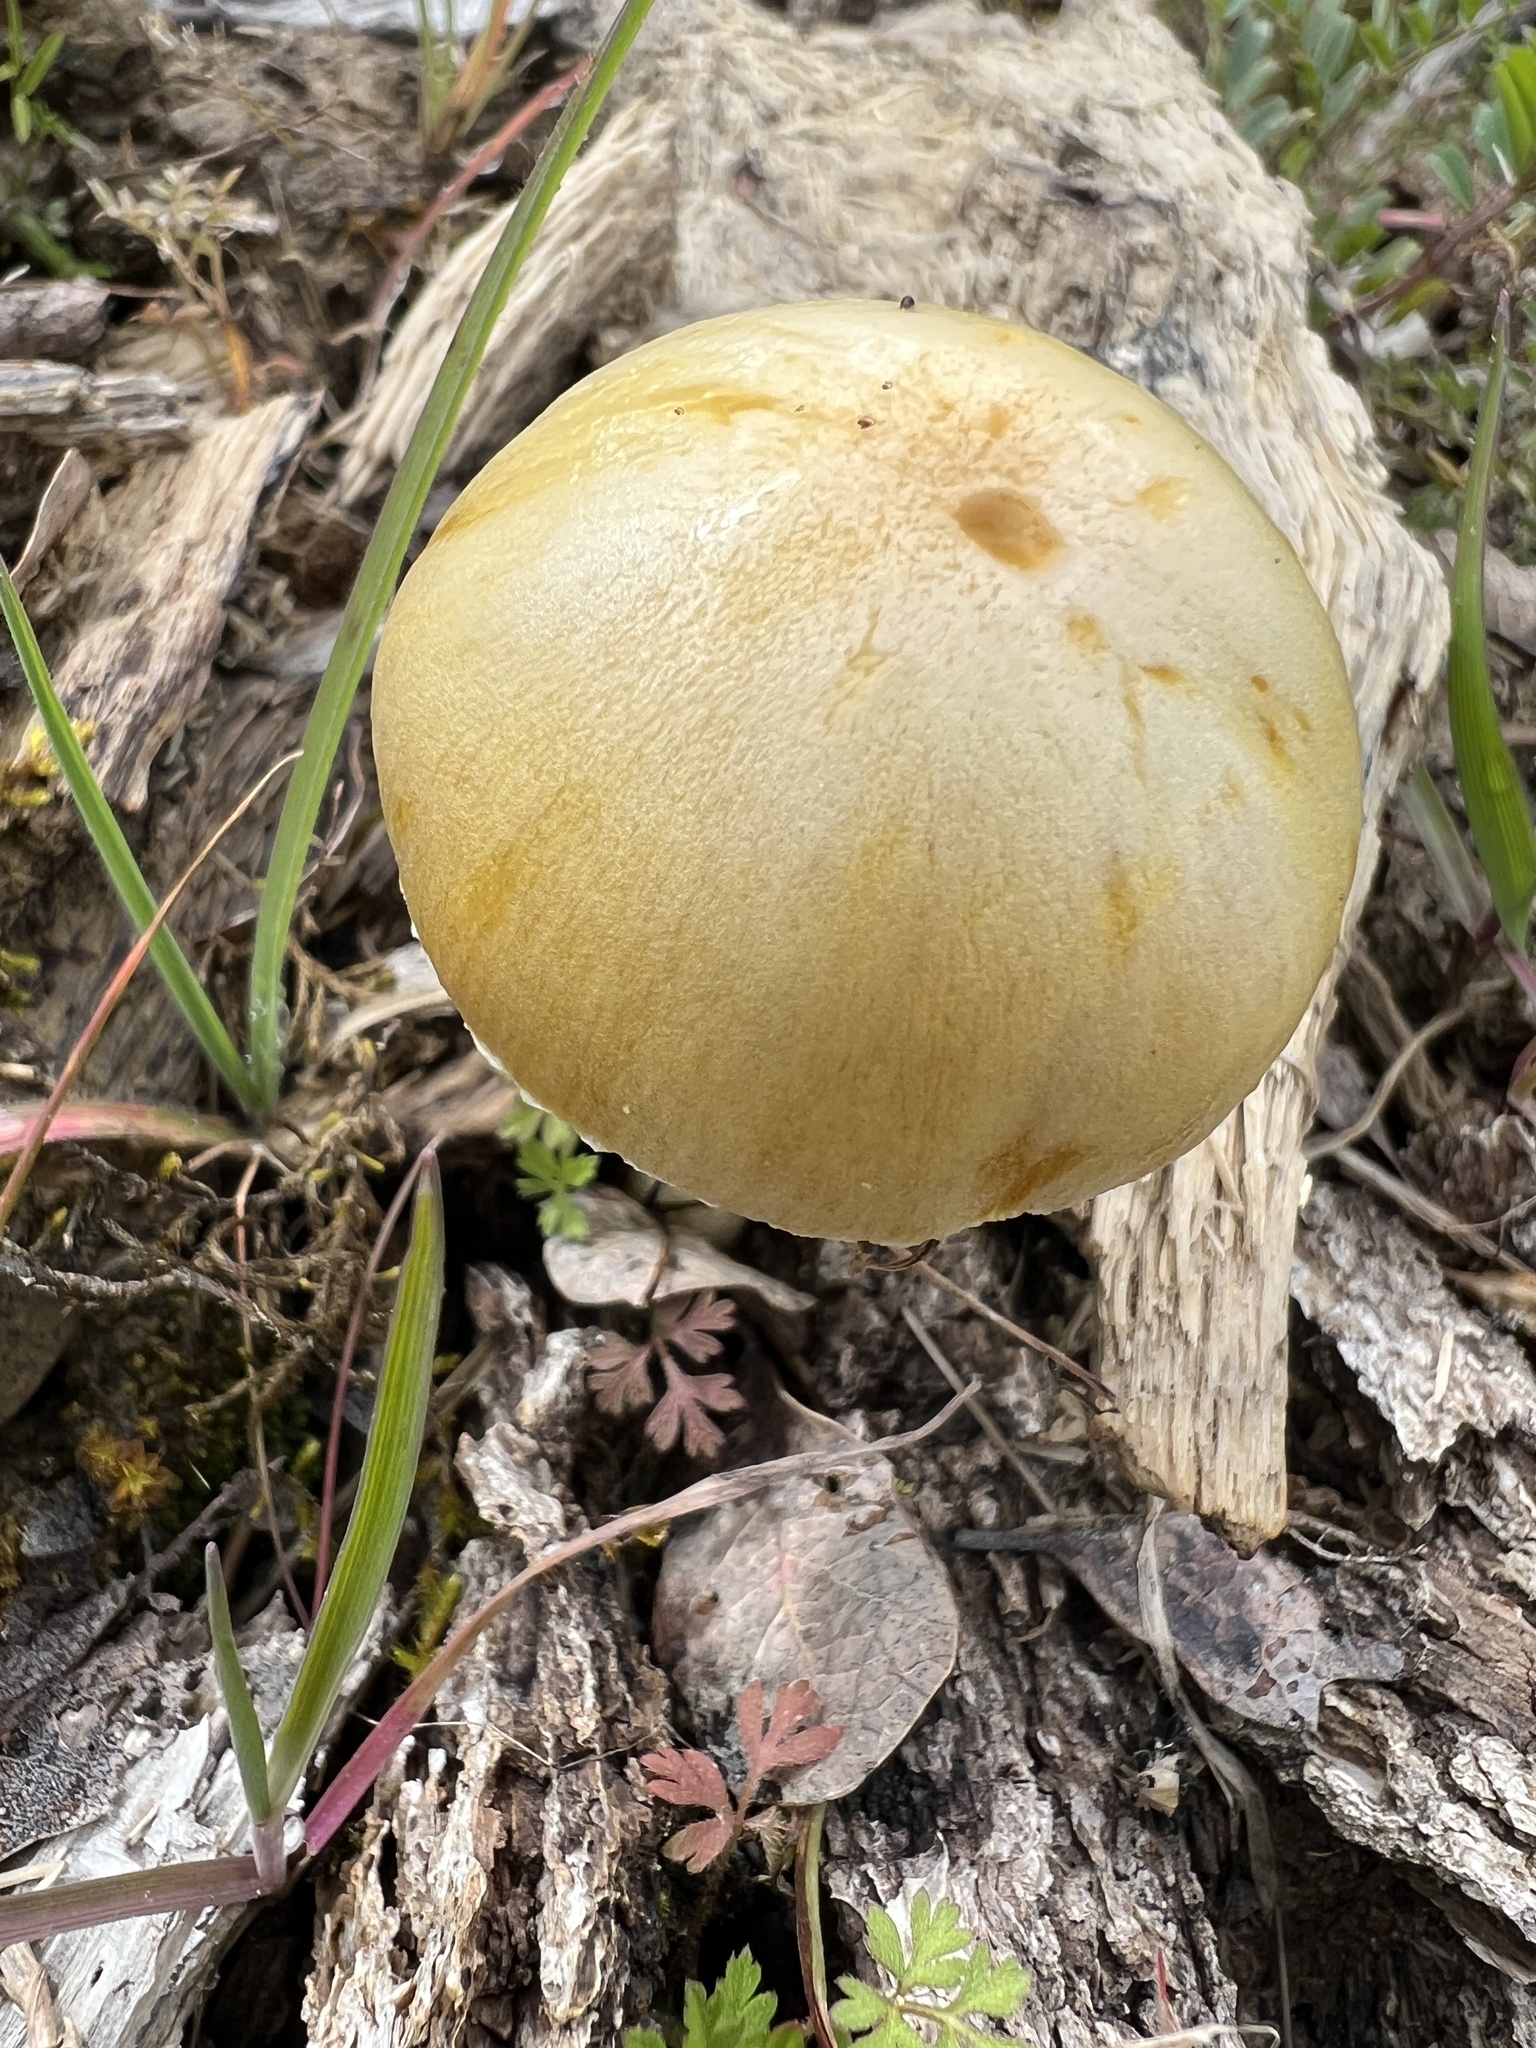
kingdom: Fungi
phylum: Basidiomycota
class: Agaricomycetes
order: Agaricales
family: Bolbitiaceae
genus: Bolbitius
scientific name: Bolbitius titubans
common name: Yellow fieldcap
